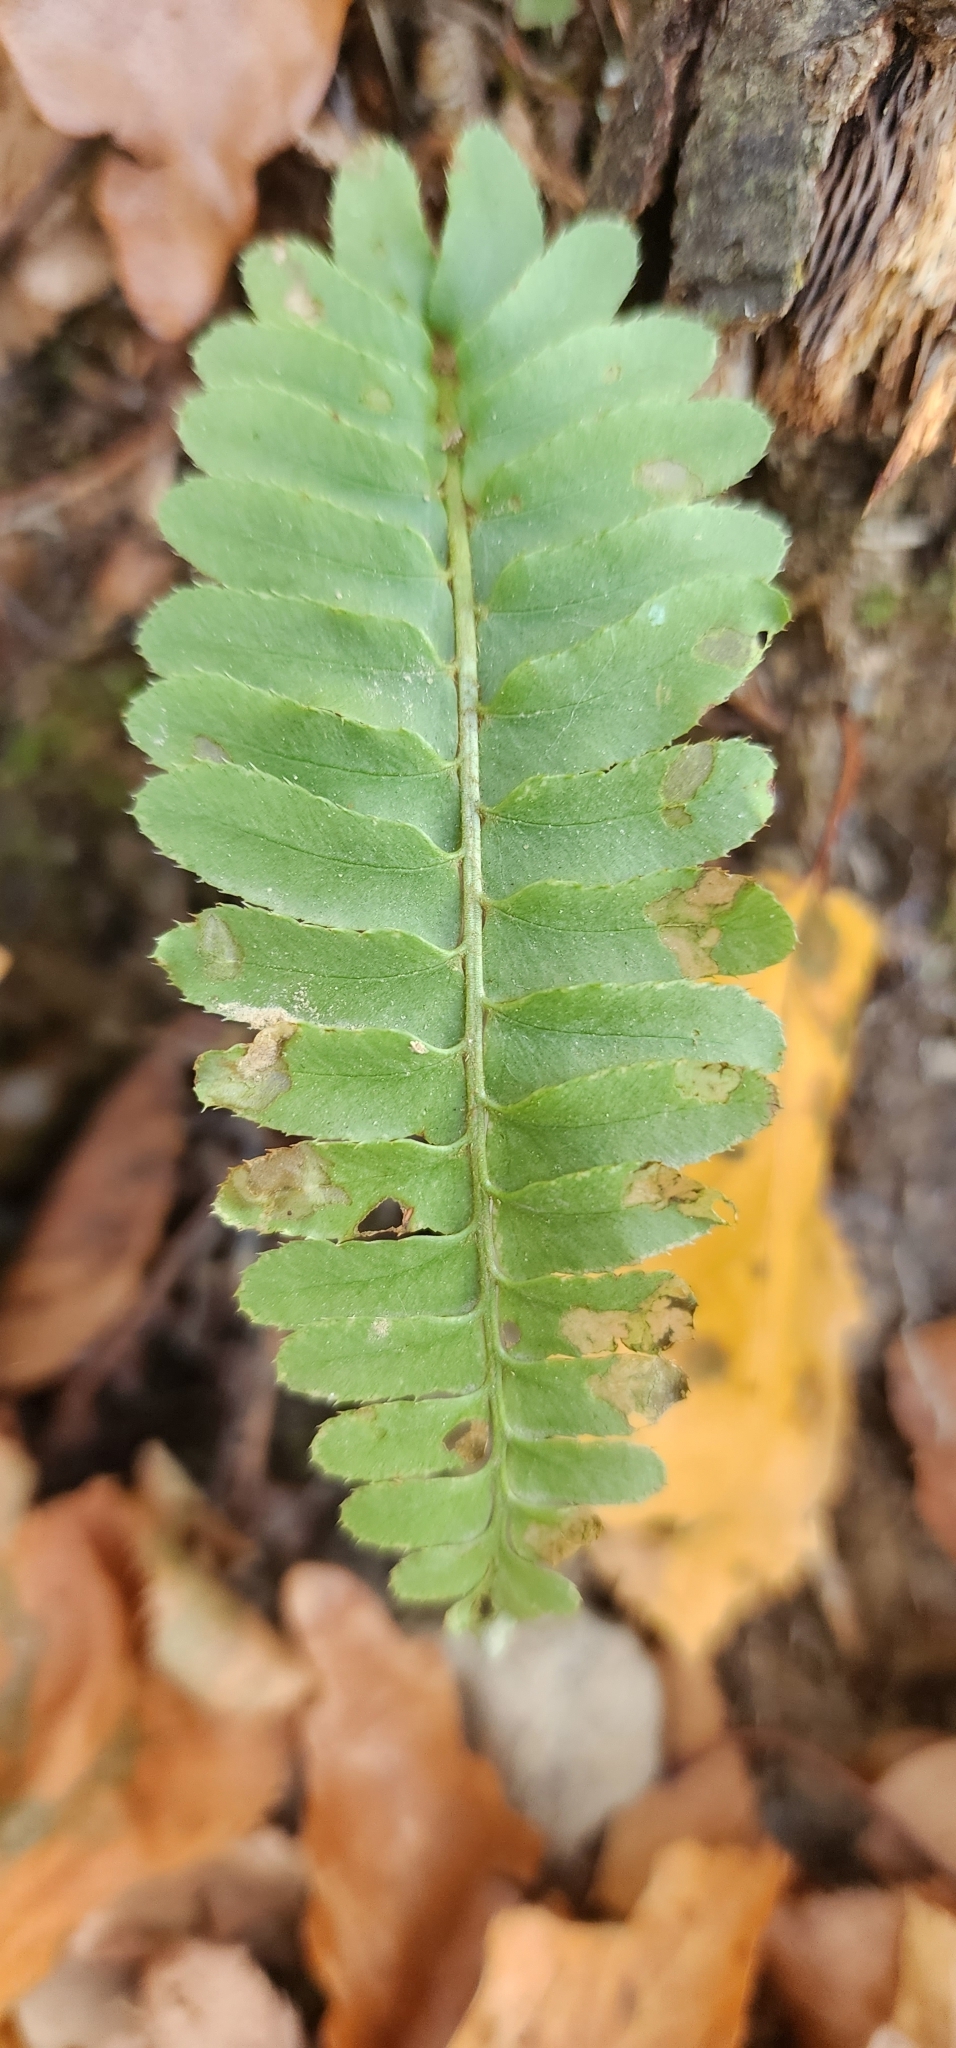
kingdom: Plantae
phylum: Tracheophyta
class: Polypodiopsida
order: Polypodiales
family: Dryopteridaceae
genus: Polystichum
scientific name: Polystichum acrostichoides
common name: Christmas fern
